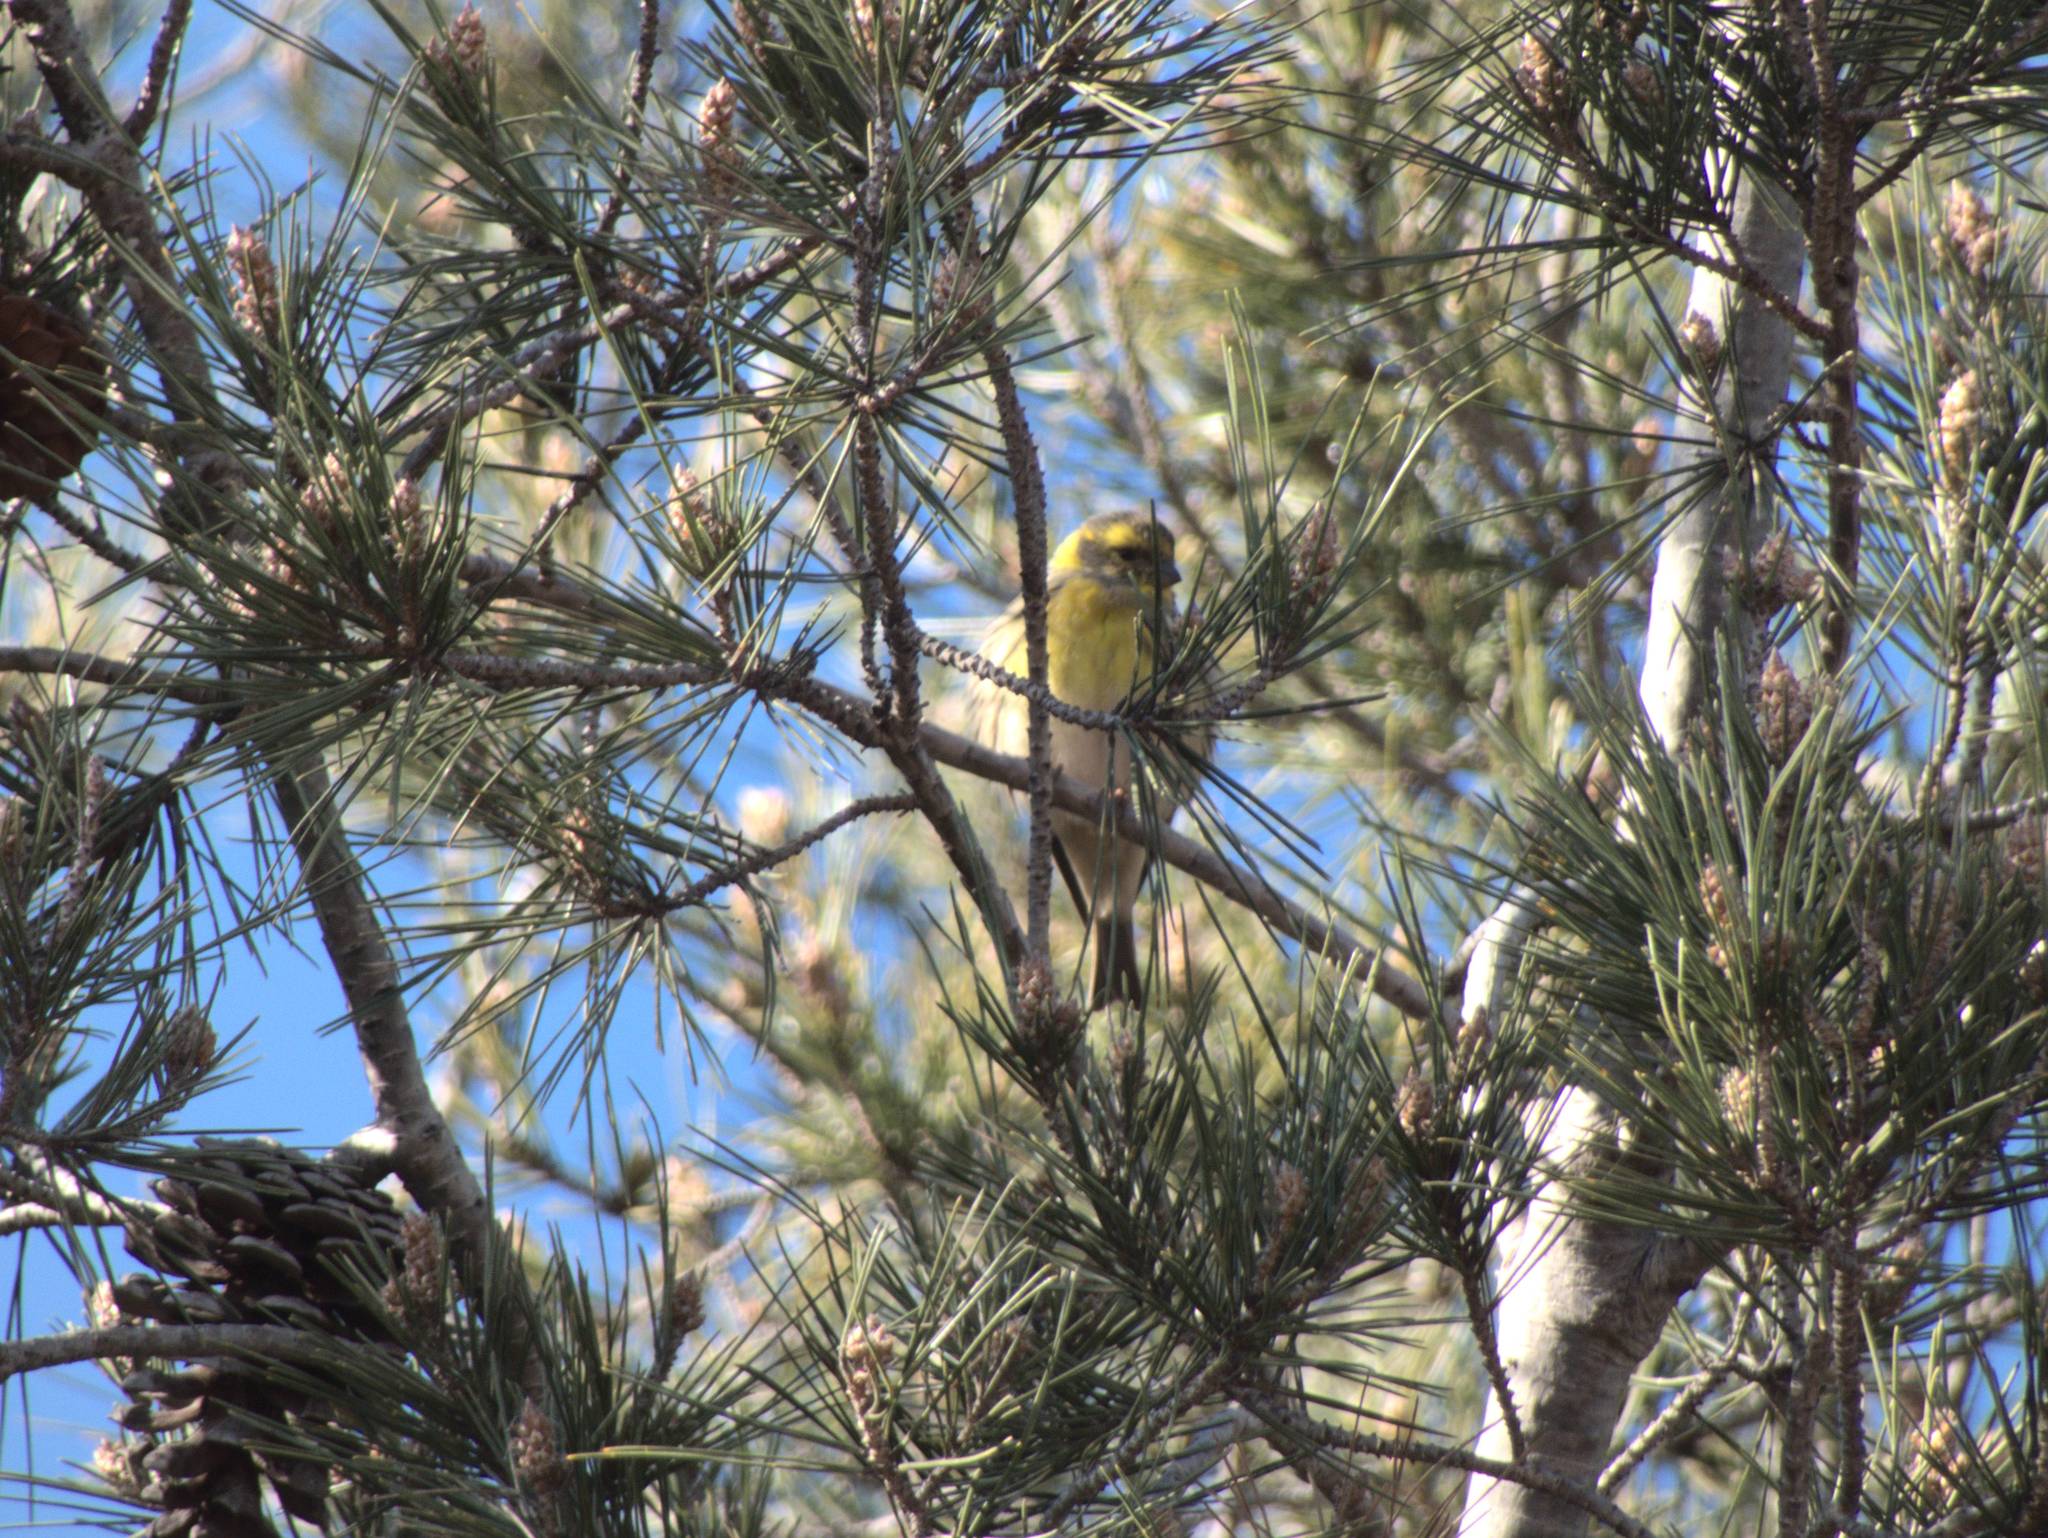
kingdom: Animalia
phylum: Chordata
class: Aves
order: Passeriformes
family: Fringillidae
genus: Serinus
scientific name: Serinus serinus
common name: European serin
